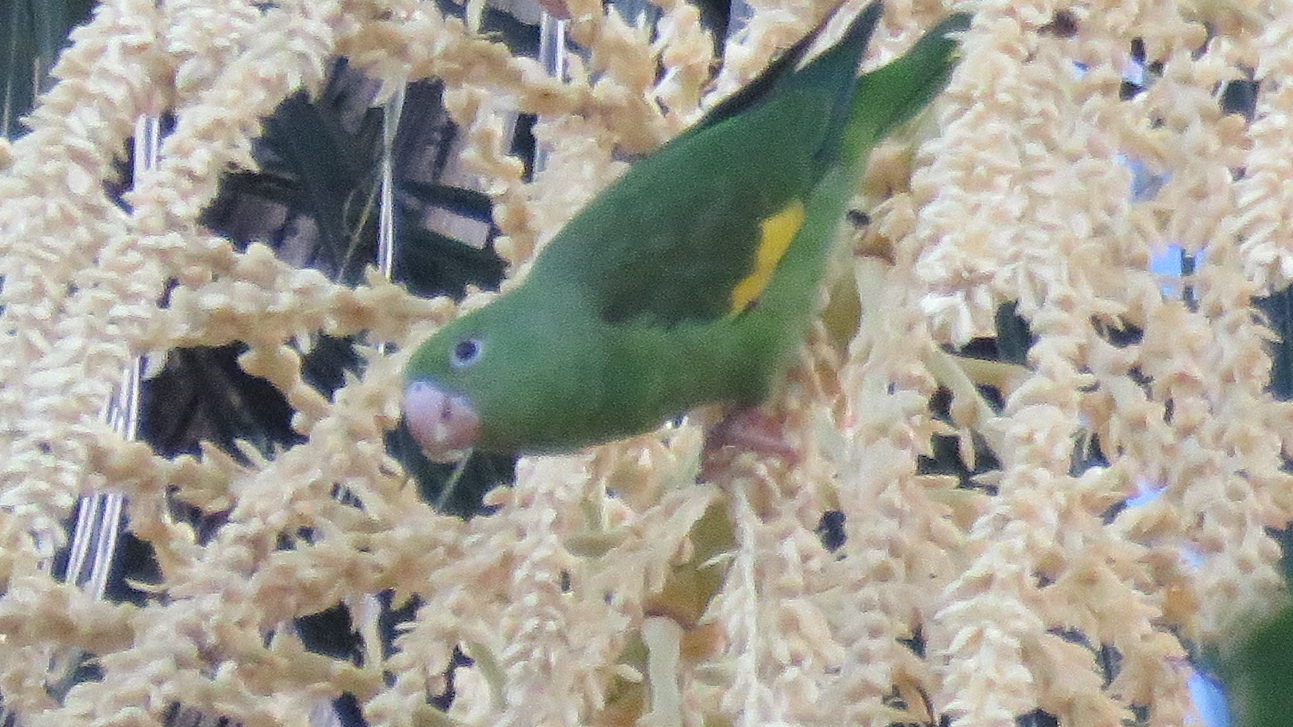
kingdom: Animalia
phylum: Chordata
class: Aves
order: Psittaciformes
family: Psittacidae
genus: Brotogeris
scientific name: Brotogeris chiriri
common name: Yellow-chevroned parakeet
